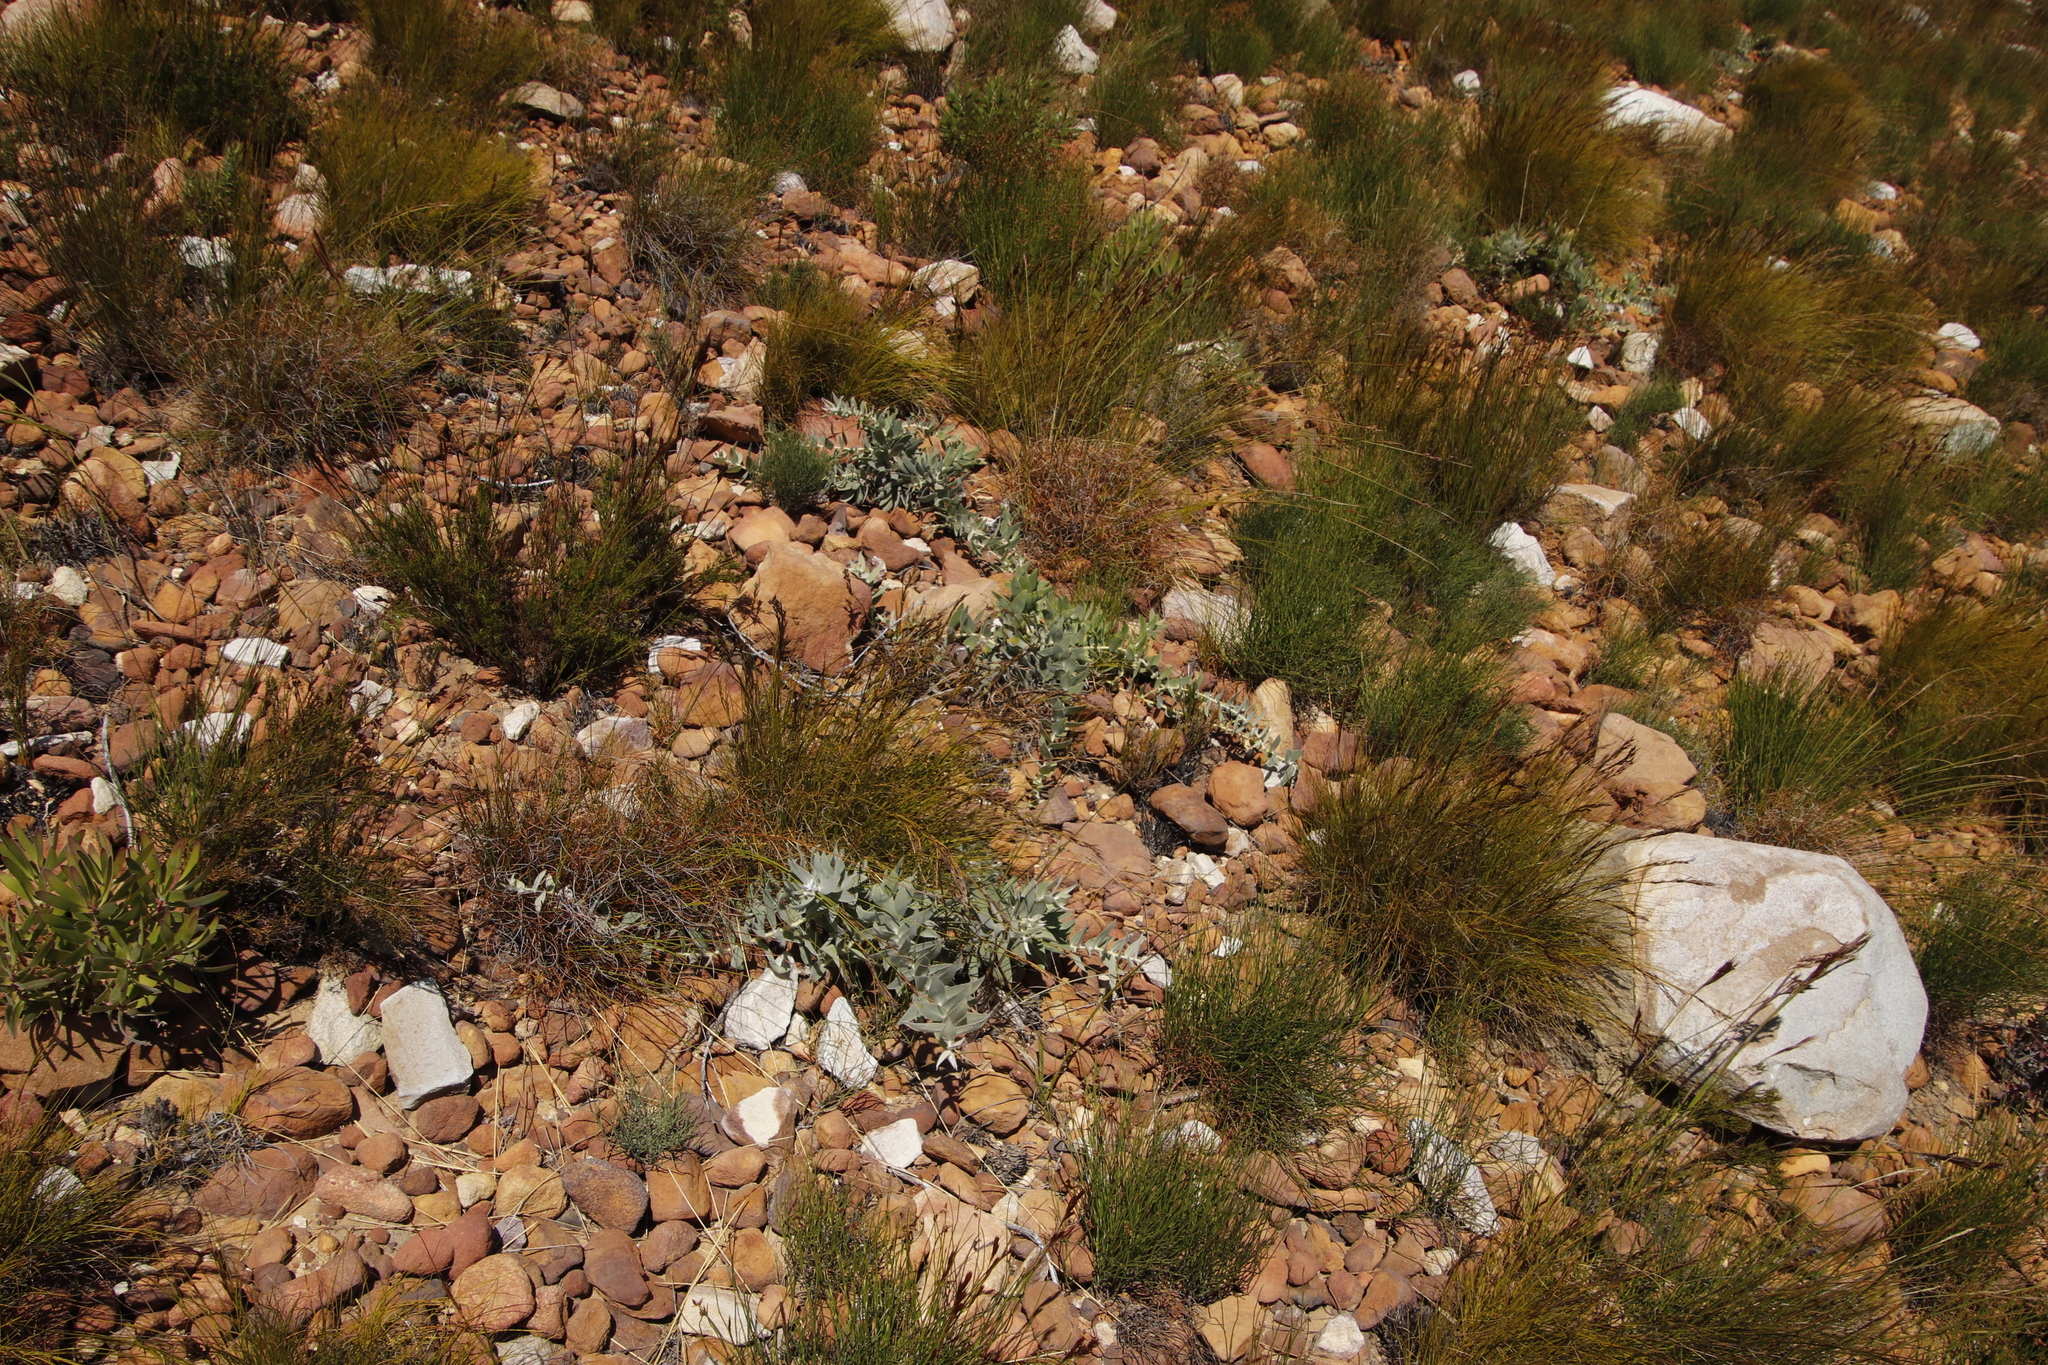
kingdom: Plantae
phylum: Tracheophyta
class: Magnoliopsida
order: Proteales
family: Proteaceae
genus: Leucospermum
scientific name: Leucospermum cordatum
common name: Heart-leaf pincushion
